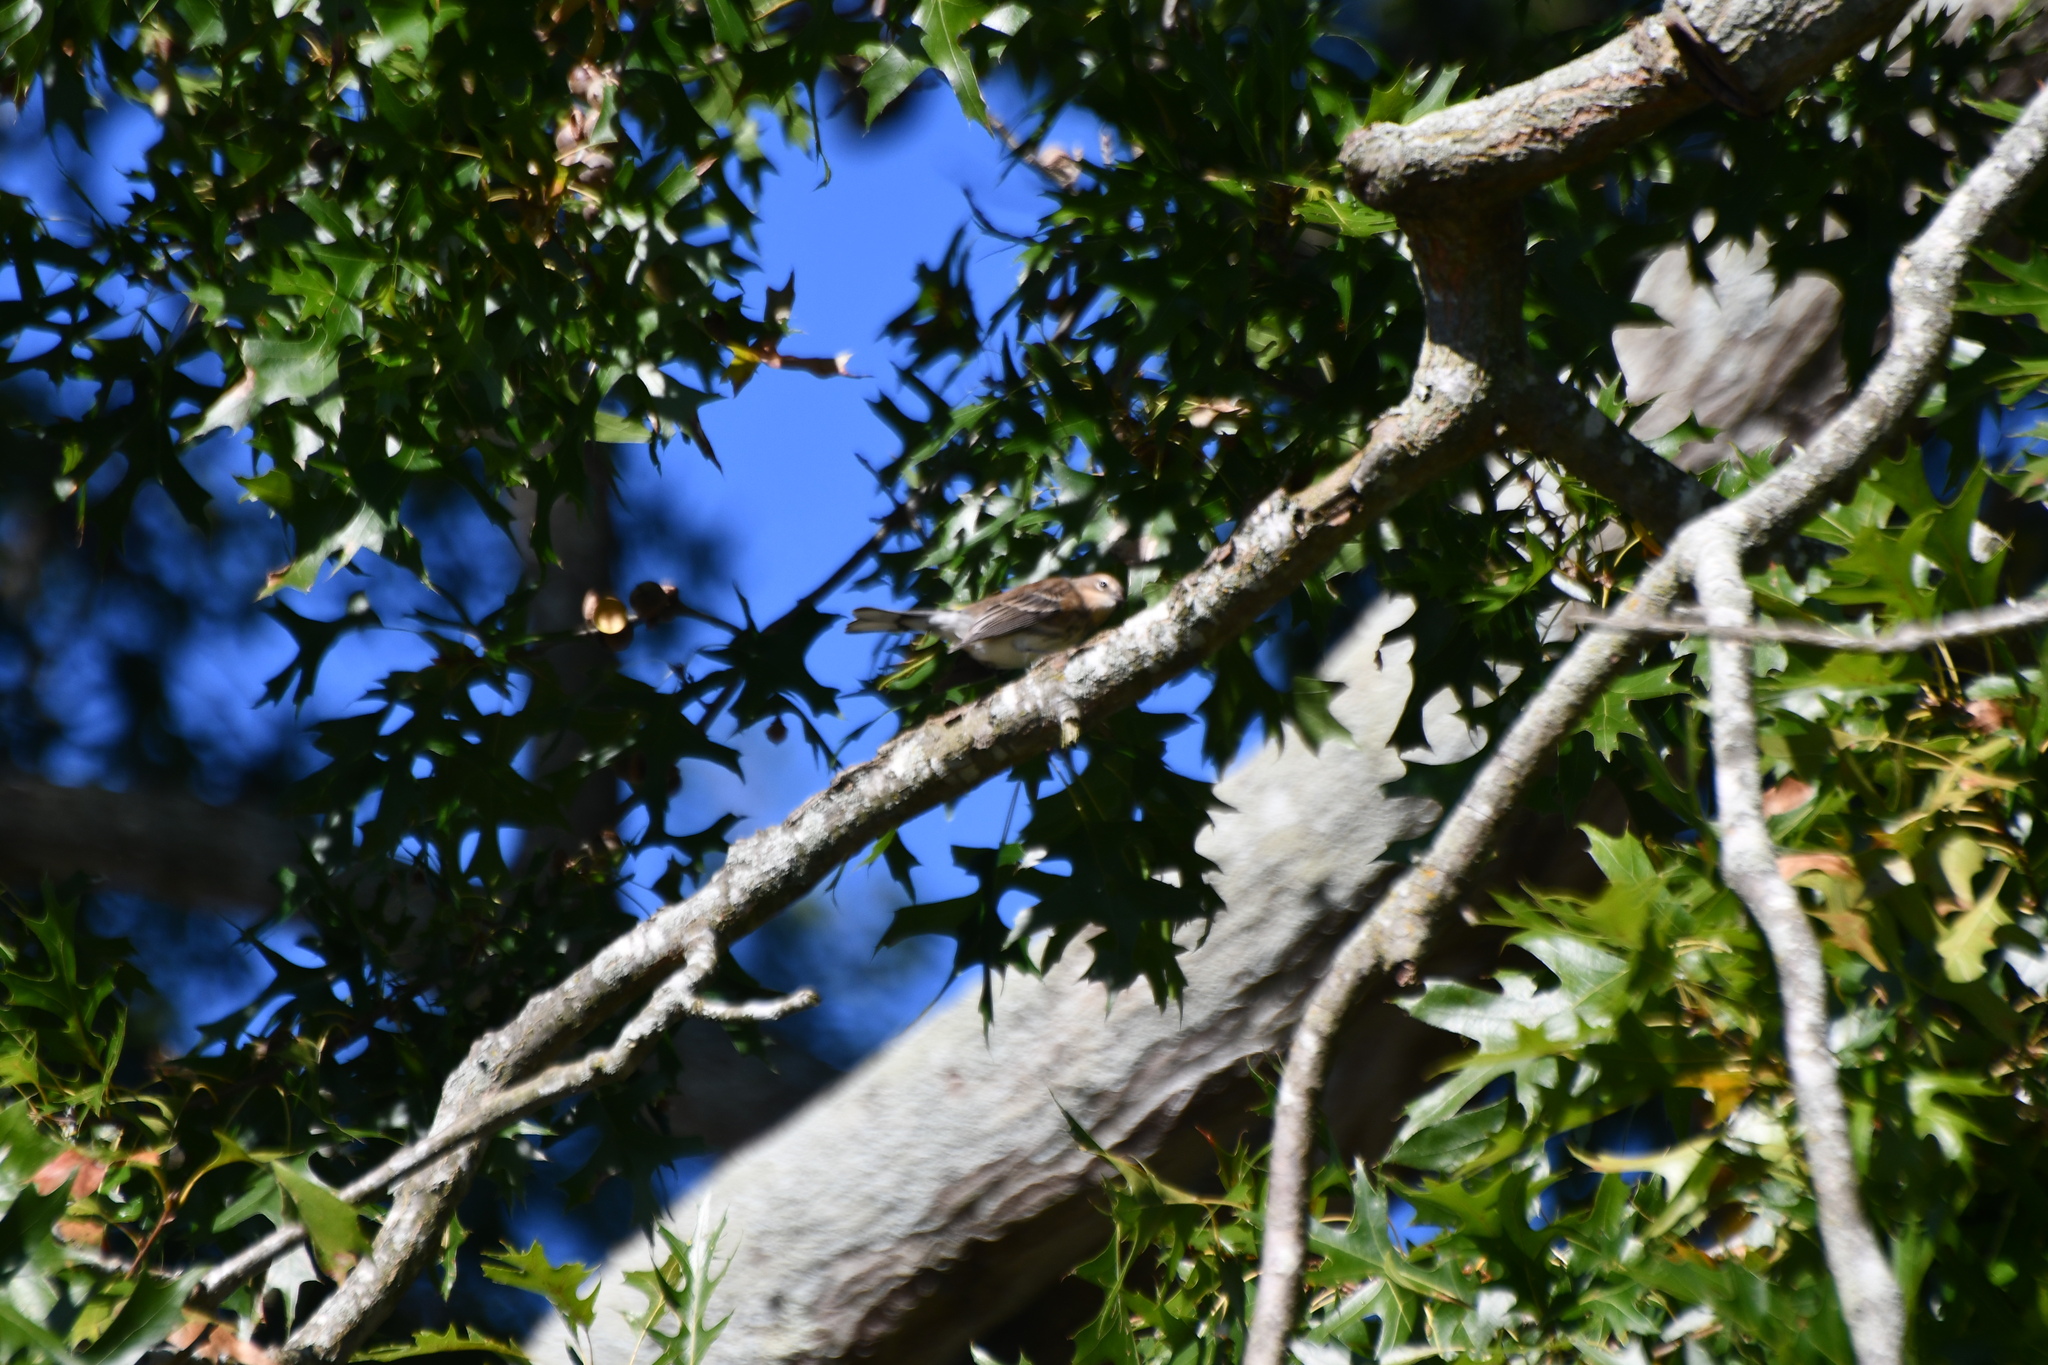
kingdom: Animalia
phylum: Chordata
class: Aves
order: Passeriformes
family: Parulidae
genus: Setophaga
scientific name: Setophaga coronata
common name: Myrtle warbler
